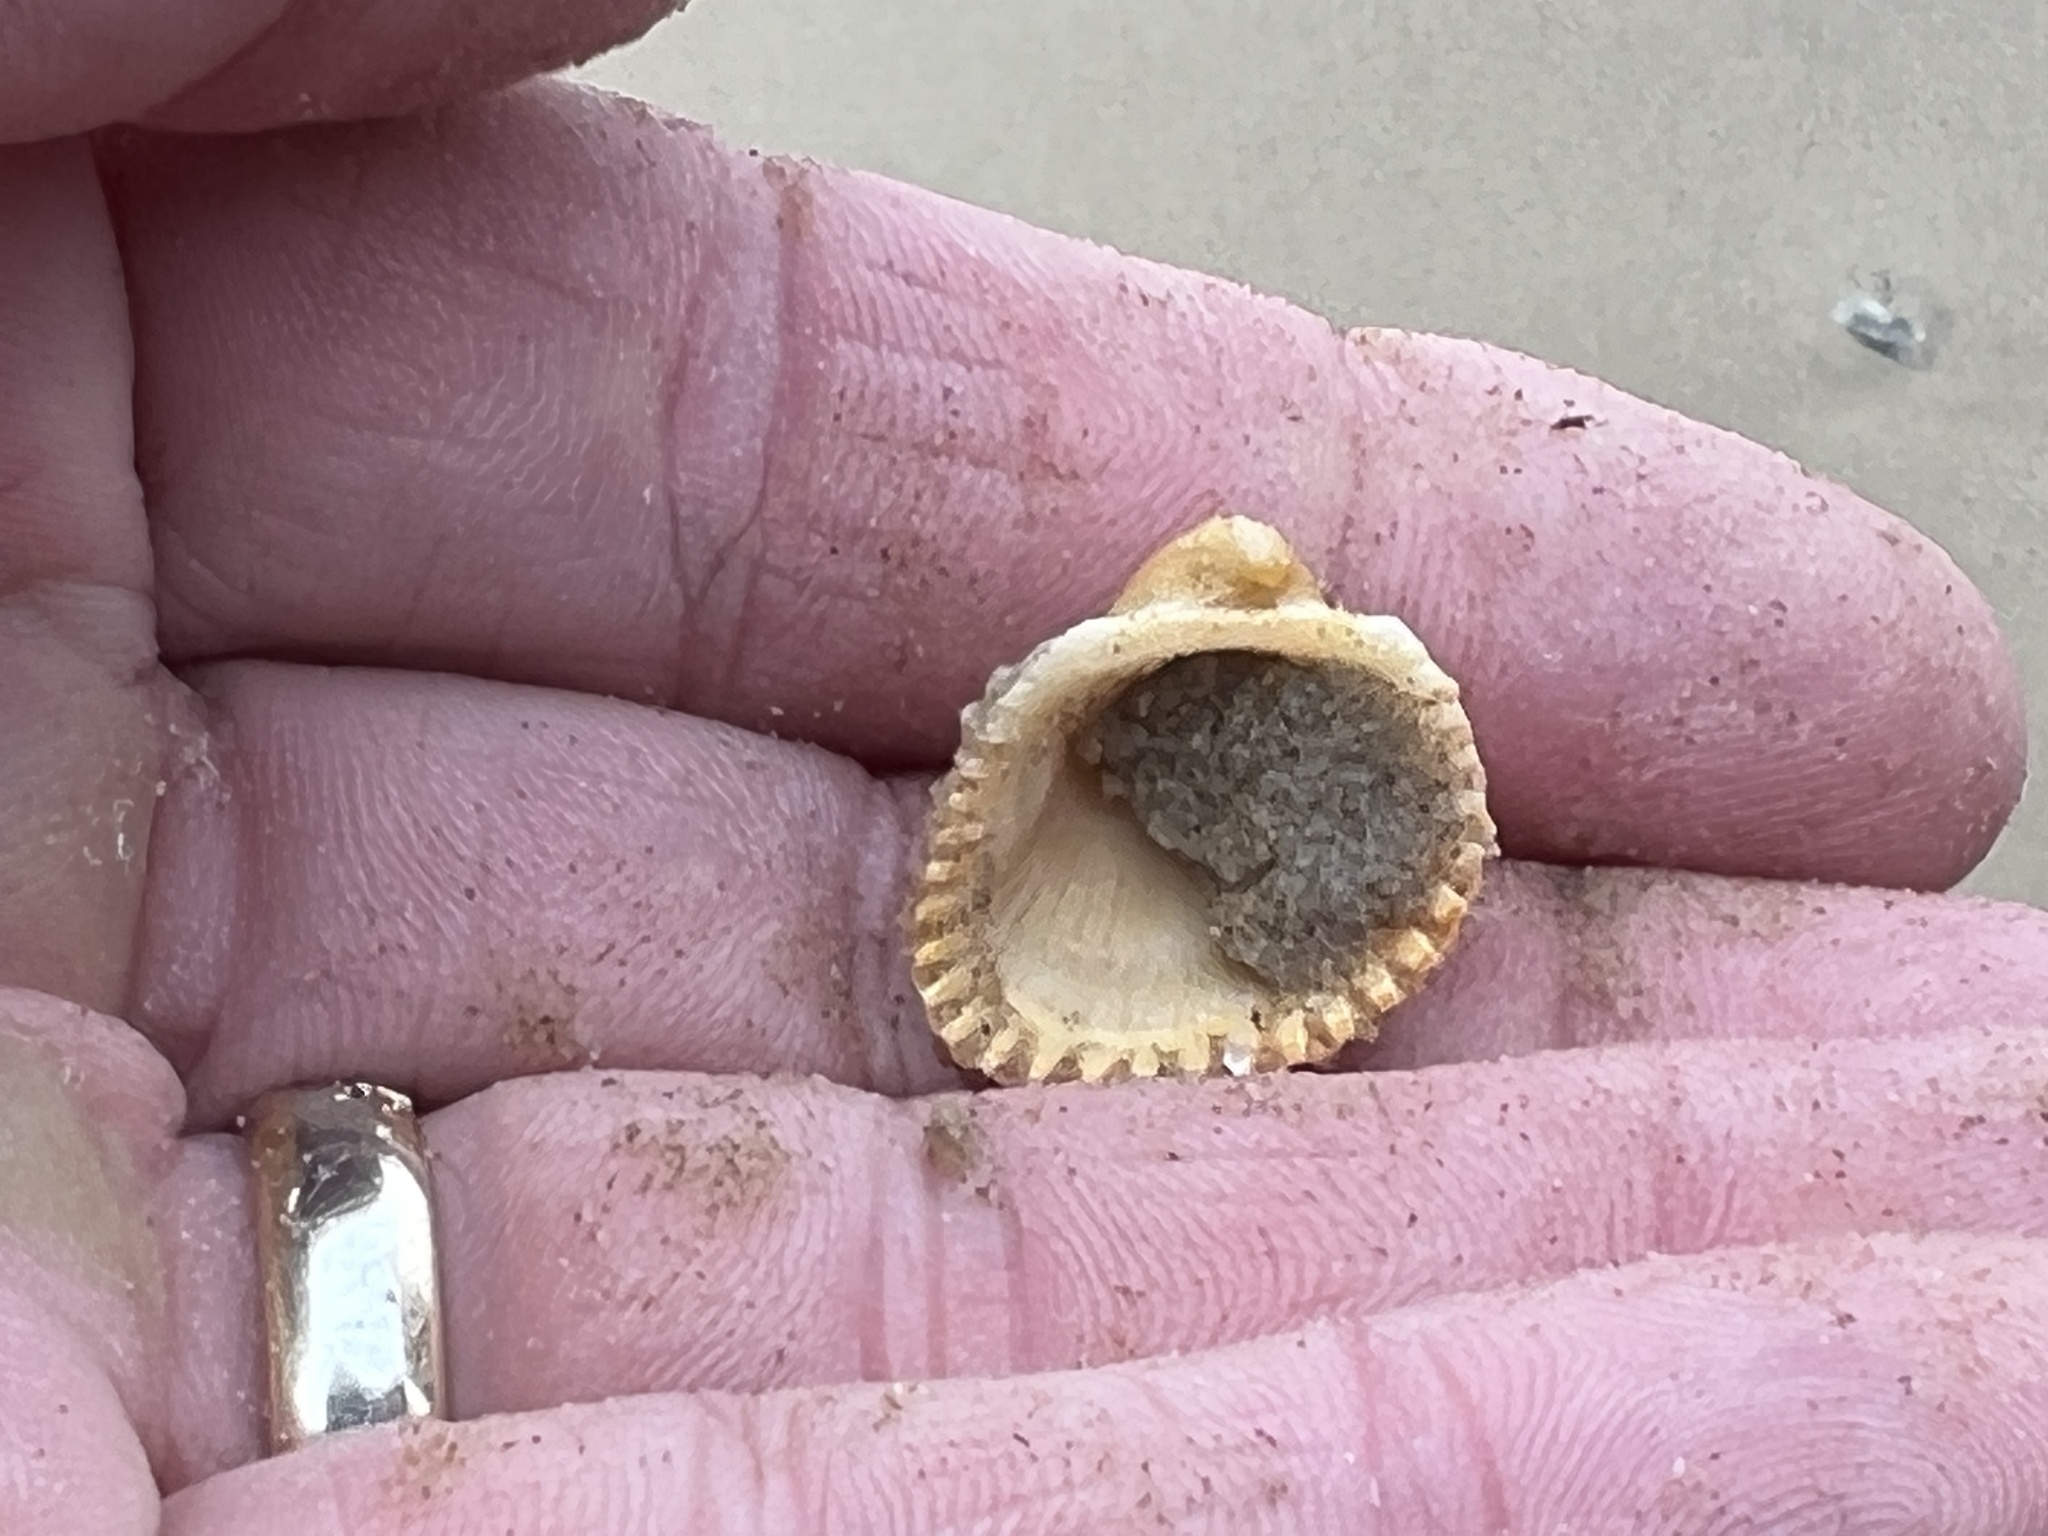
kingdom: Animalia
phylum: Mollusca
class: Bivalvia
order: Arcida
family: Arcidae
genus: Anadara
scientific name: Anadara chemnitzii
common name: Chemnitz's triangular ark
